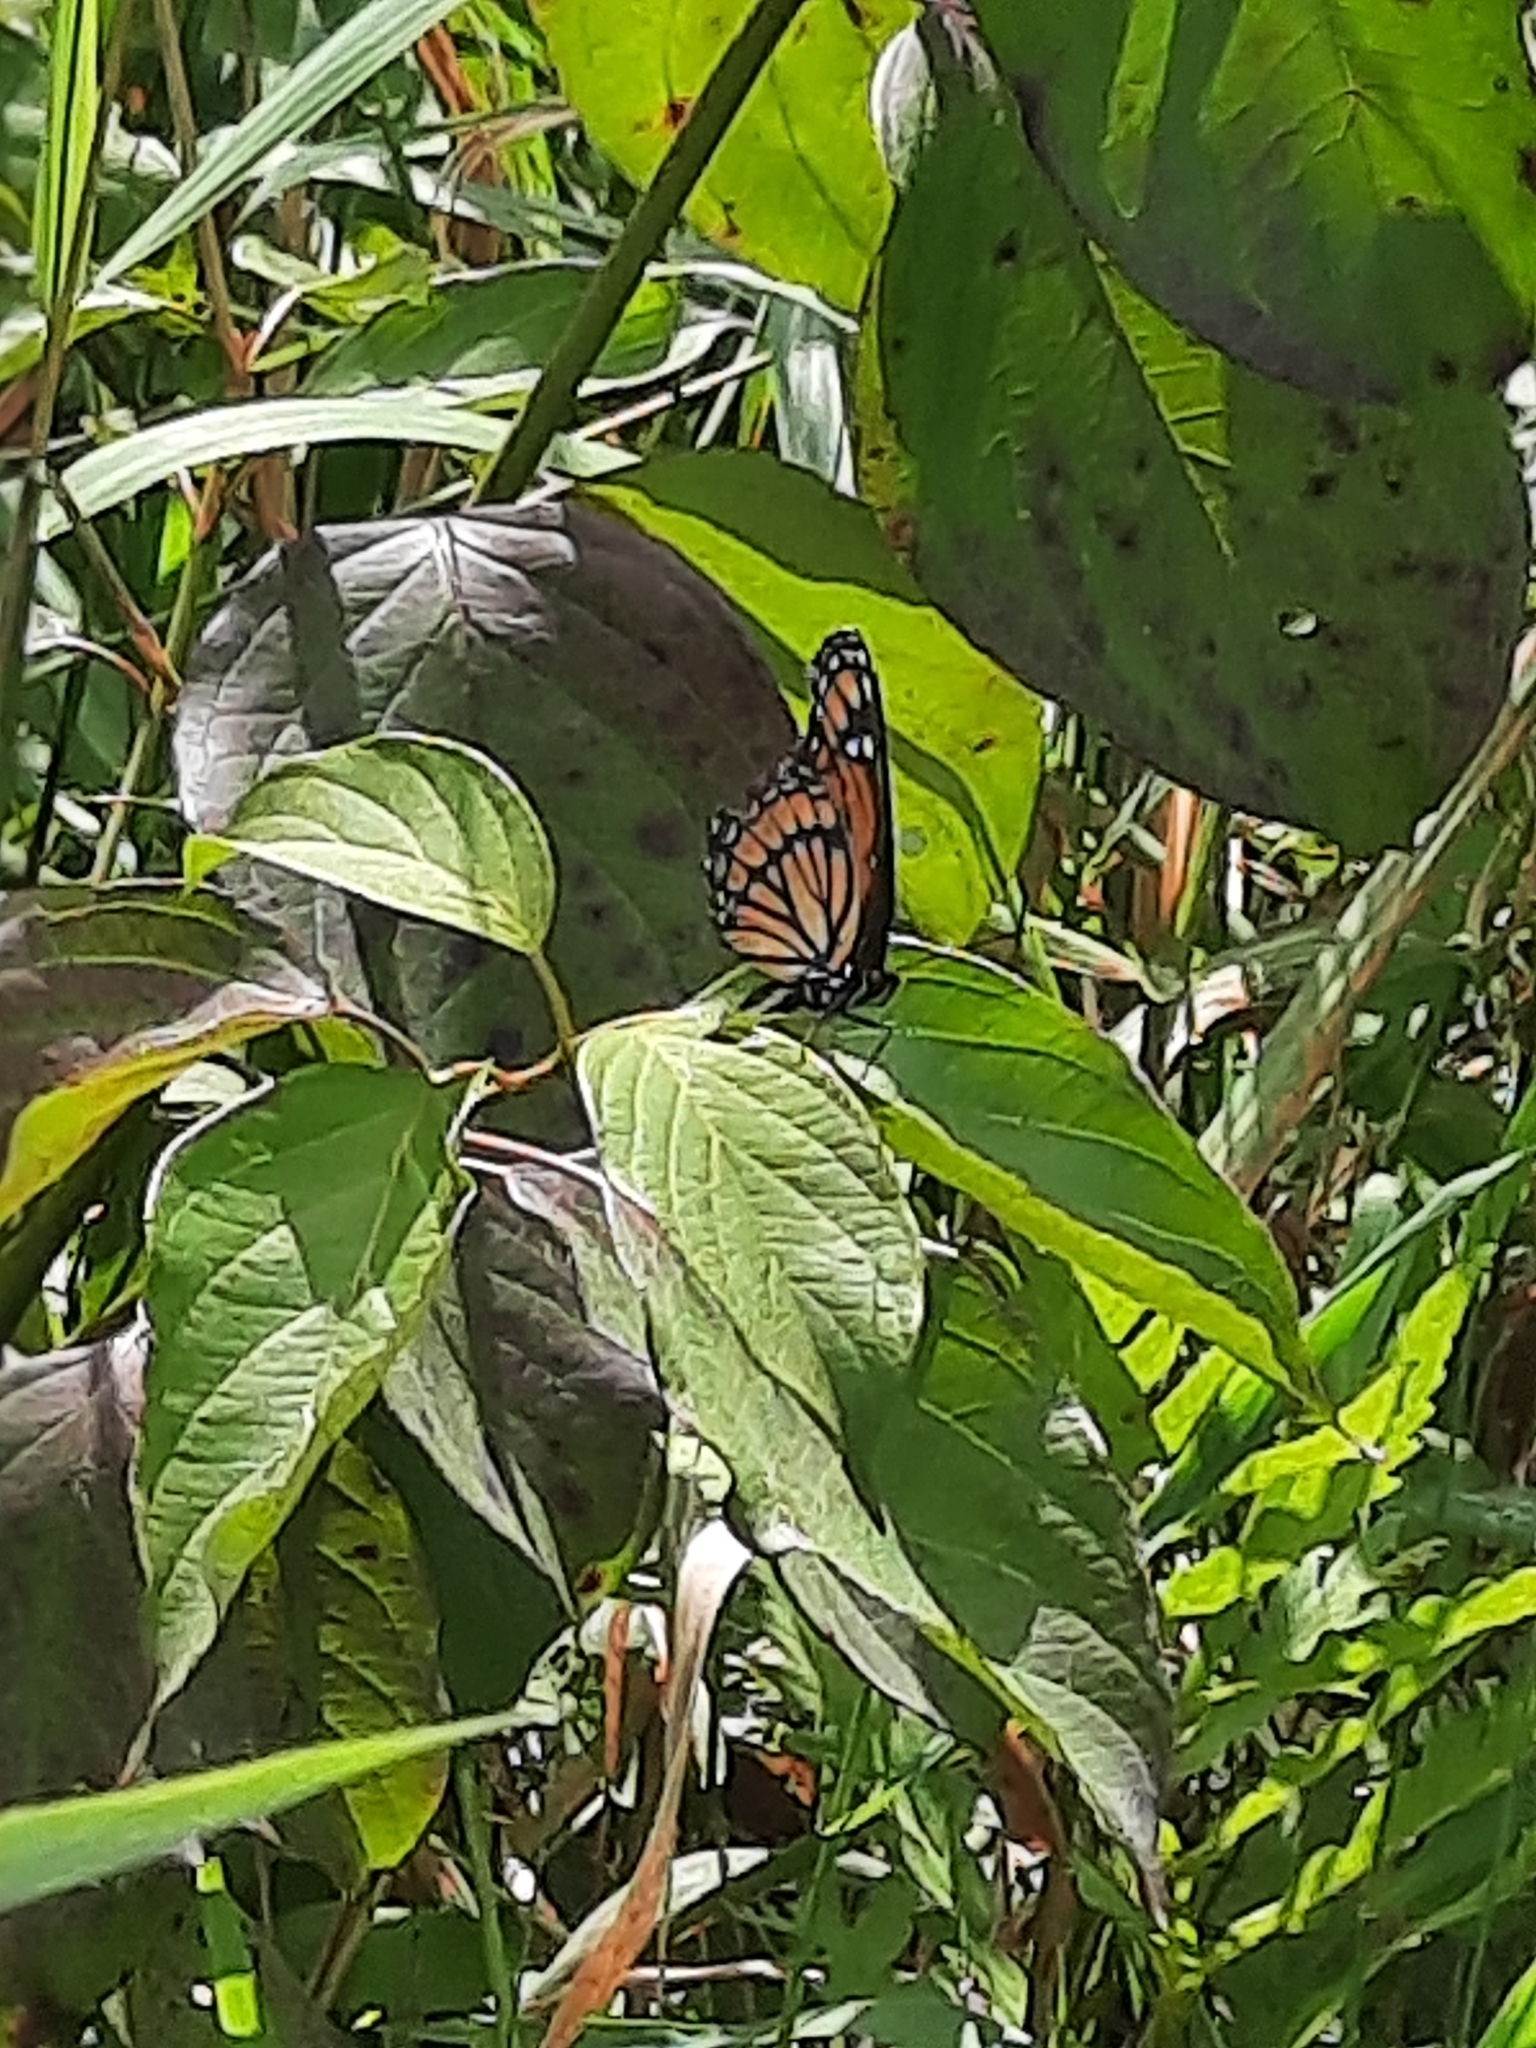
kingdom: Animalia
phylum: Arthropoda
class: Insecta
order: Lepidoptera
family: Nymphalidae
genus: Limenitis
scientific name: Limenitis archippus
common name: Viceroy
